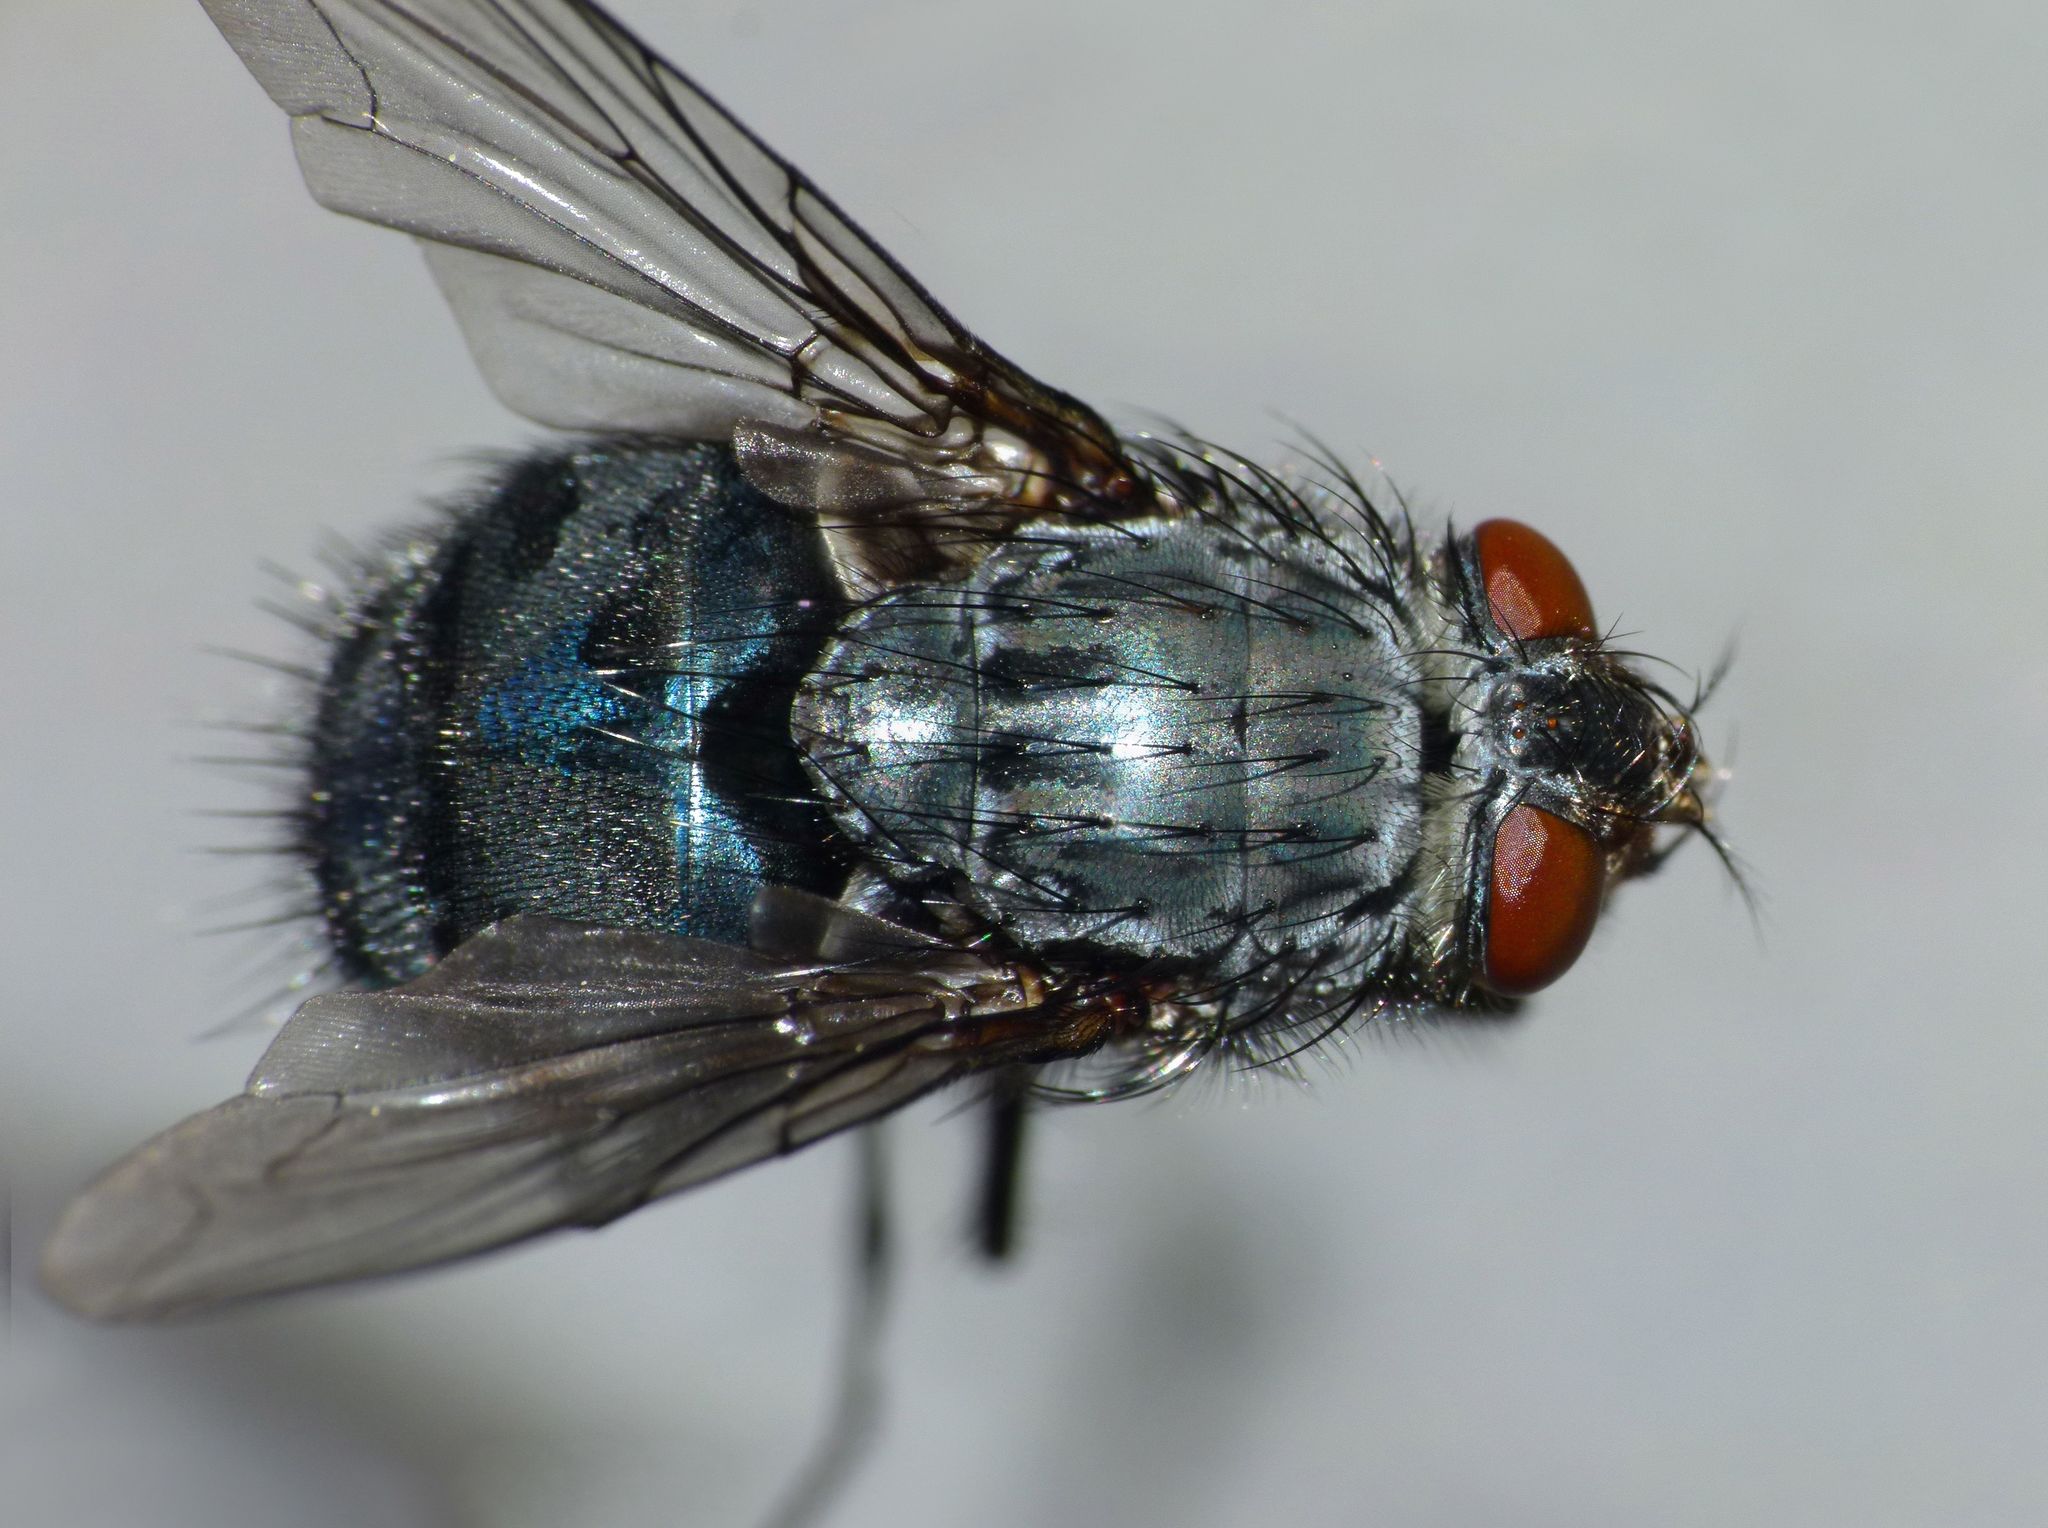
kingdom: Animalia
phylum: Arthropoda
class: Insecta
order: Diptera
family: Calliphoridae
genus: Calliphora
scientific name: Calliphora vicina
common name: Common blow flie
